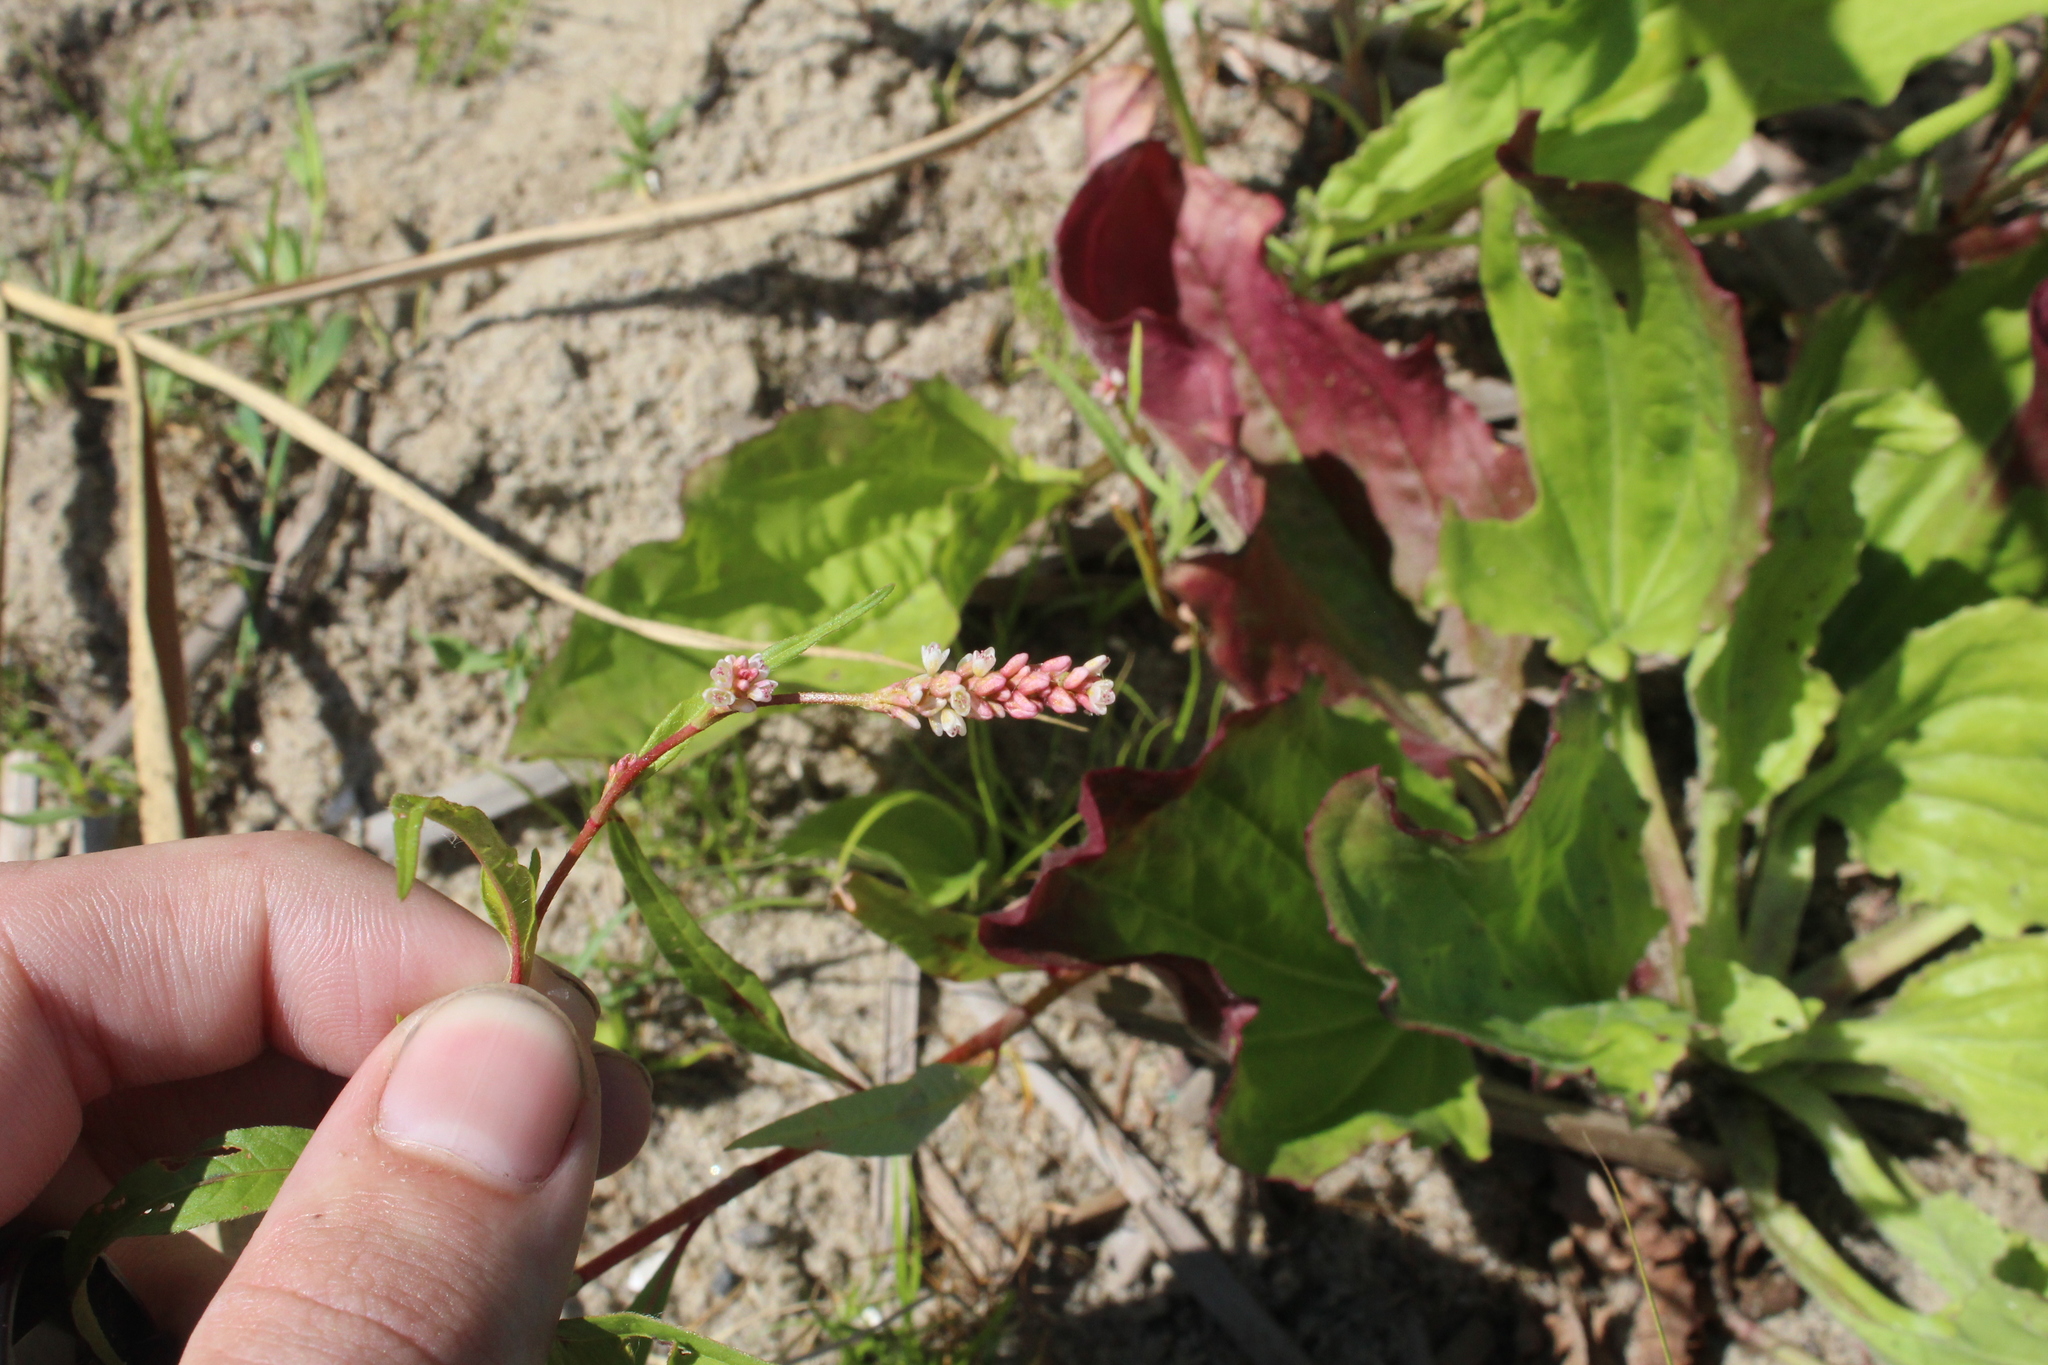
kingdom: Plantae
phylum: Tracheophyta
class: Magnoliopsida
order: Caryophyllales
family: Polygonaceae
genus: Persicaria
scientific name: Persicaria lapathifolia
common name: Curlytop knotweed
